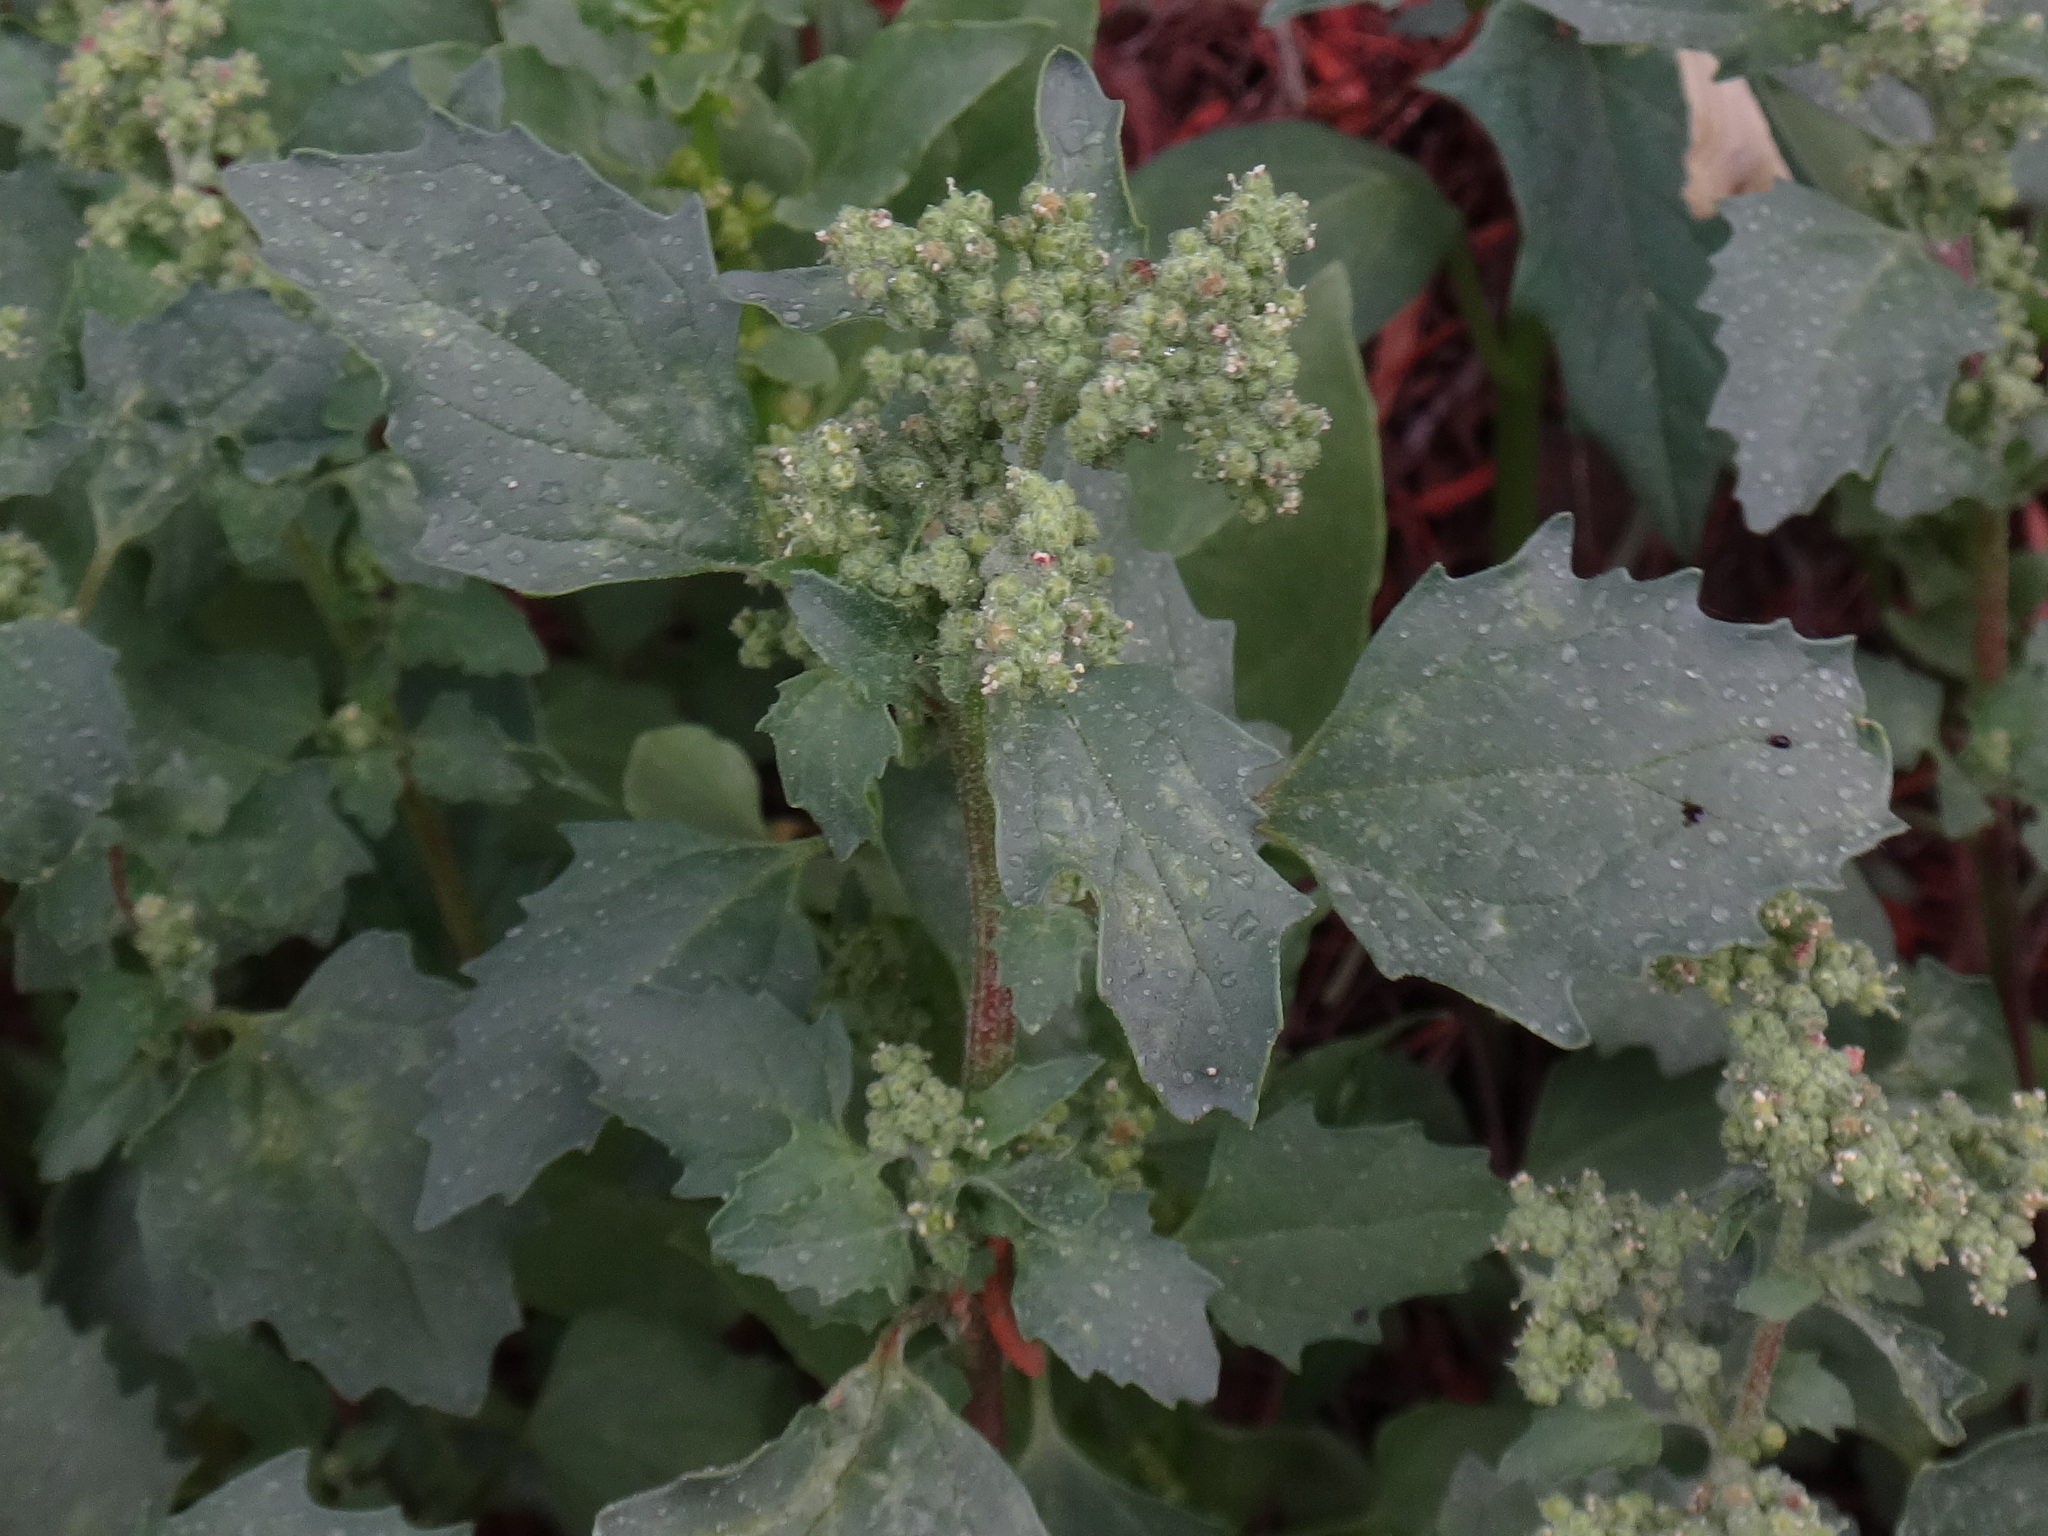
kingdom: Plantae
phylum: Tracheophyta
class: Magnoliopsida
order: Caryophyllales
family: Amaranthaceae
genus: Chenopodiastrum
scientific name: Chenopodiastrum murale
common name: Sowbane
